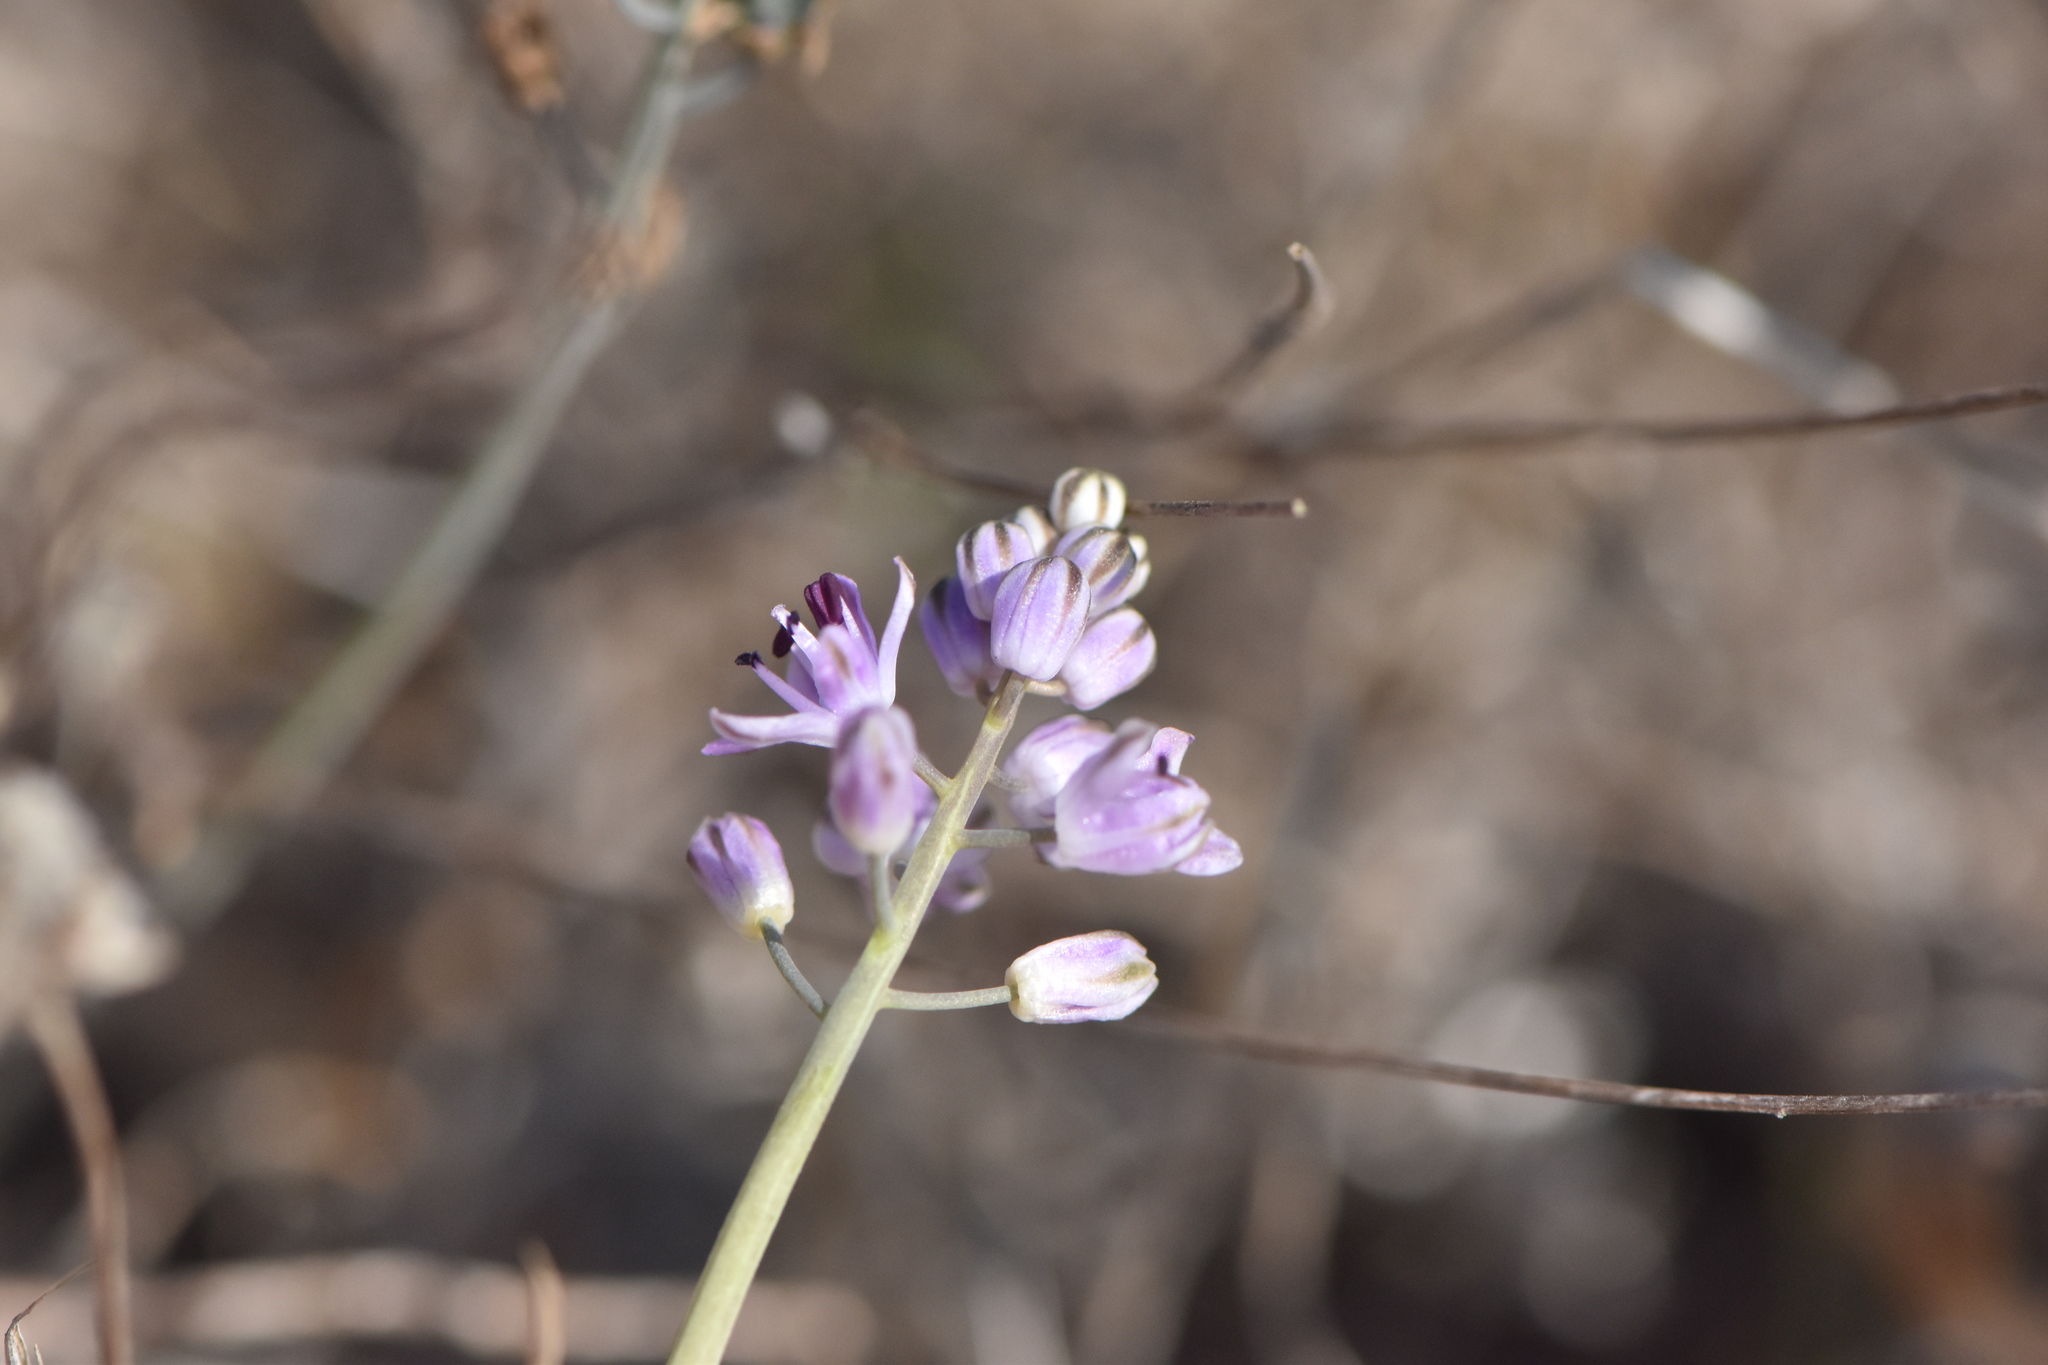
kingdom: Plantae
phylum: Tracheophyta
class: Liliopsida
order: Asparagales
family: Asparagaceae
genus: Prospero
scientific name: Prospero autumnale
